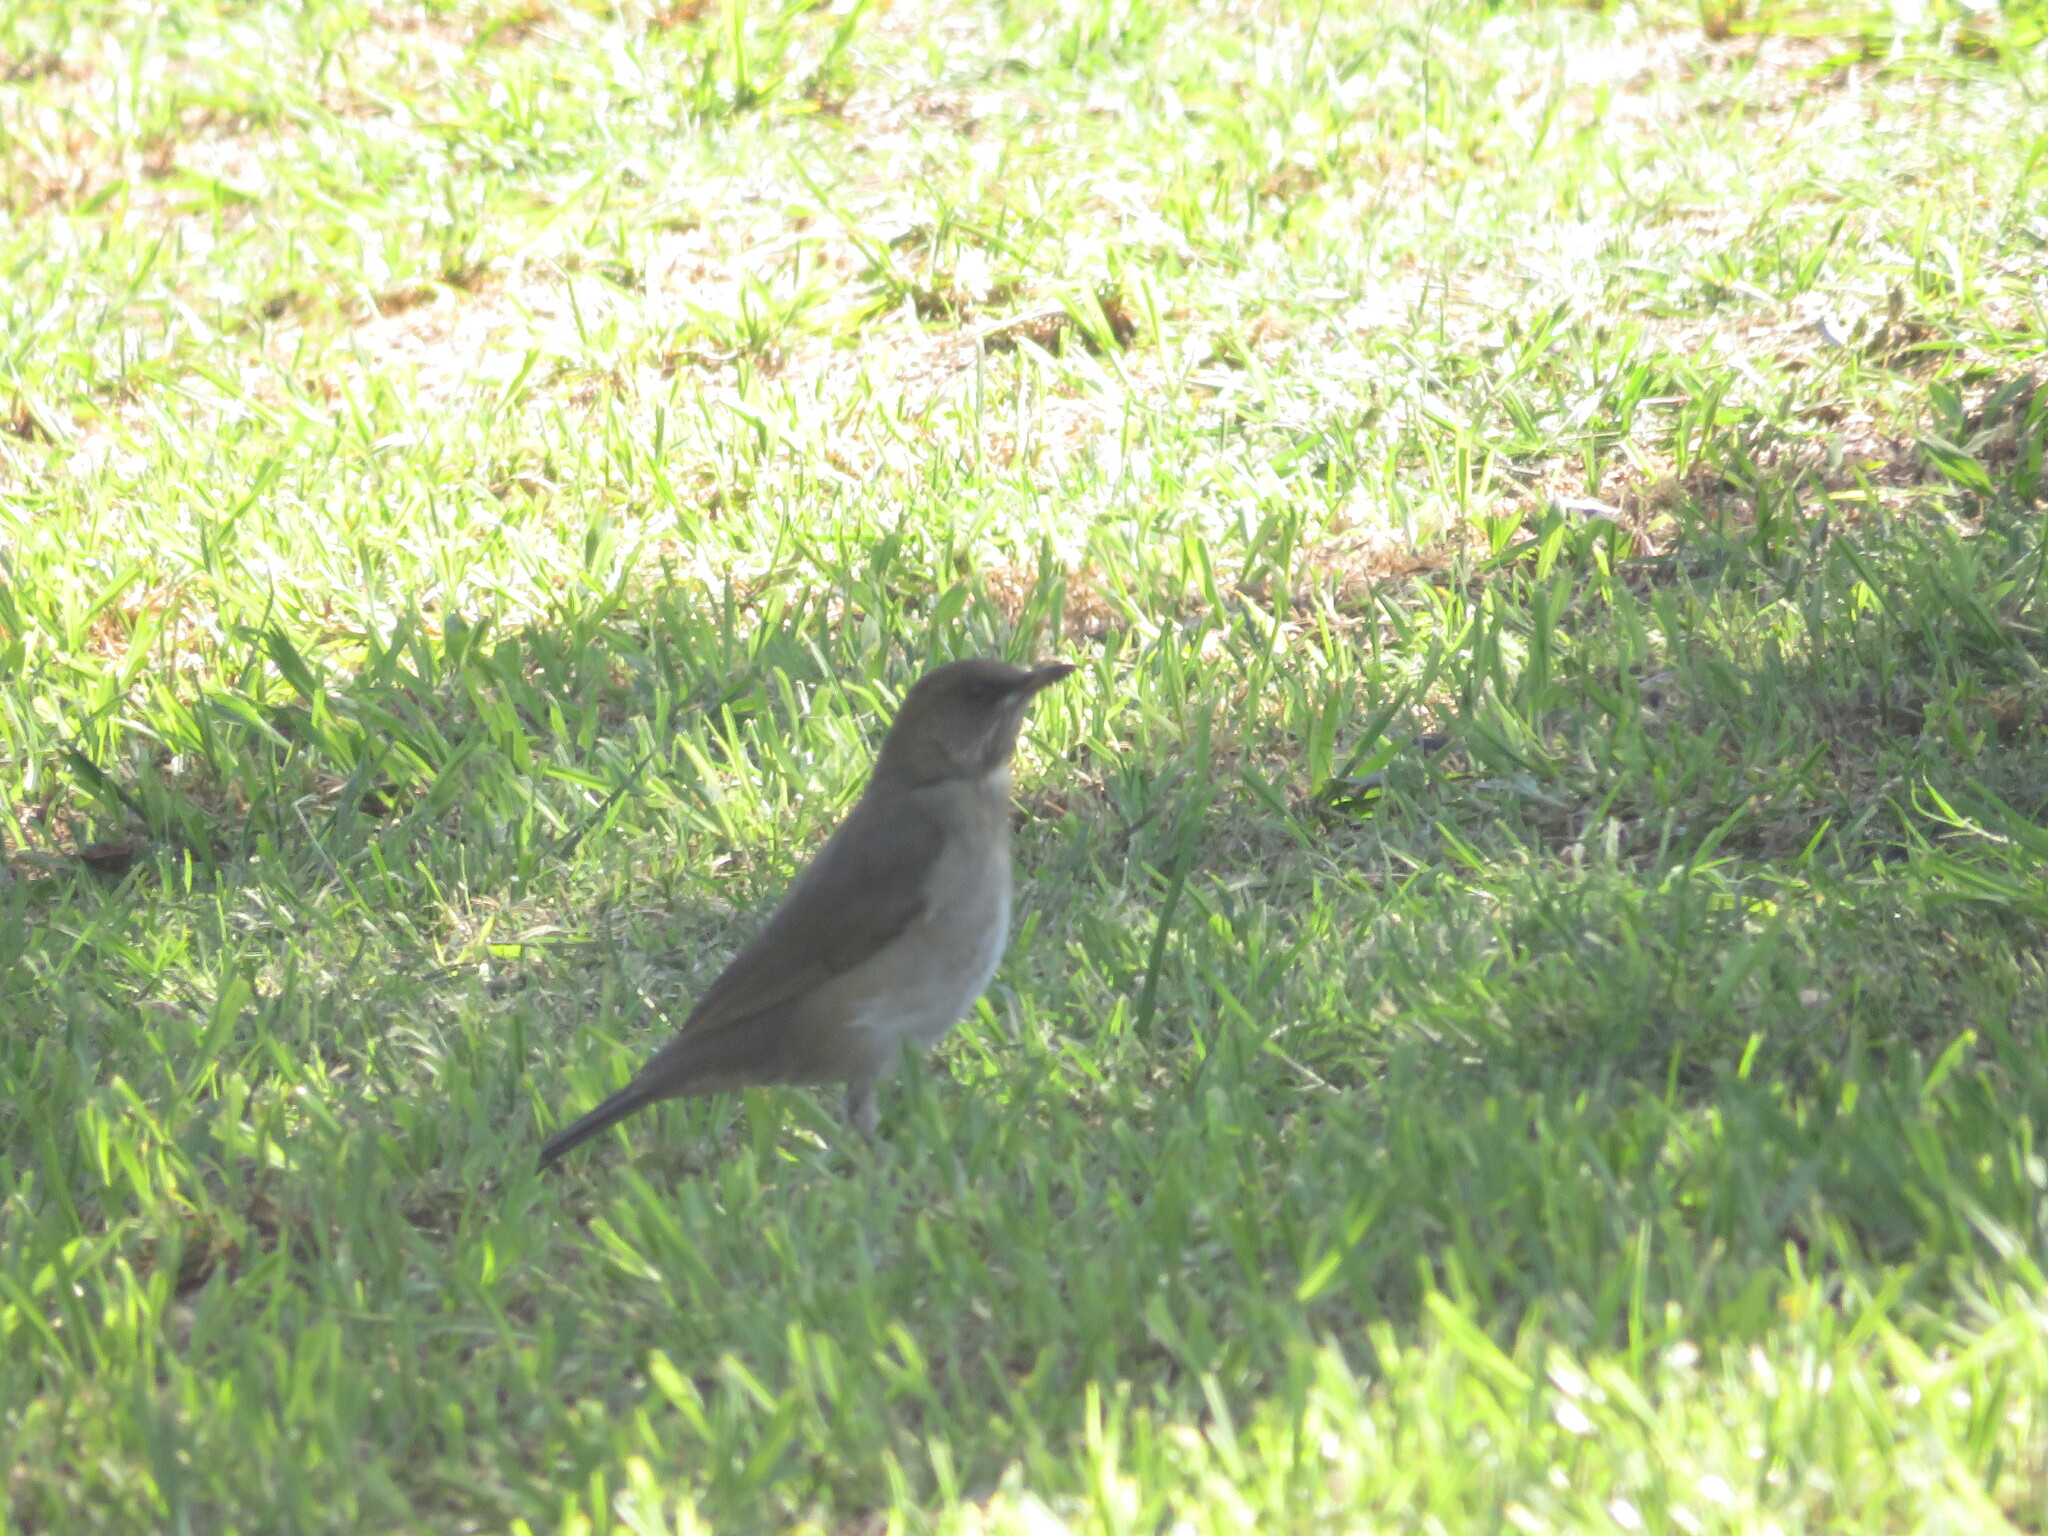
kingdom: Animalia
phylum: Chordata
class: Aves
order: Passeriformes
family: Turdidae
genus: Turdus
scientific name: Turdus amaurochalinus
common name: Creamy-bellied thrush
